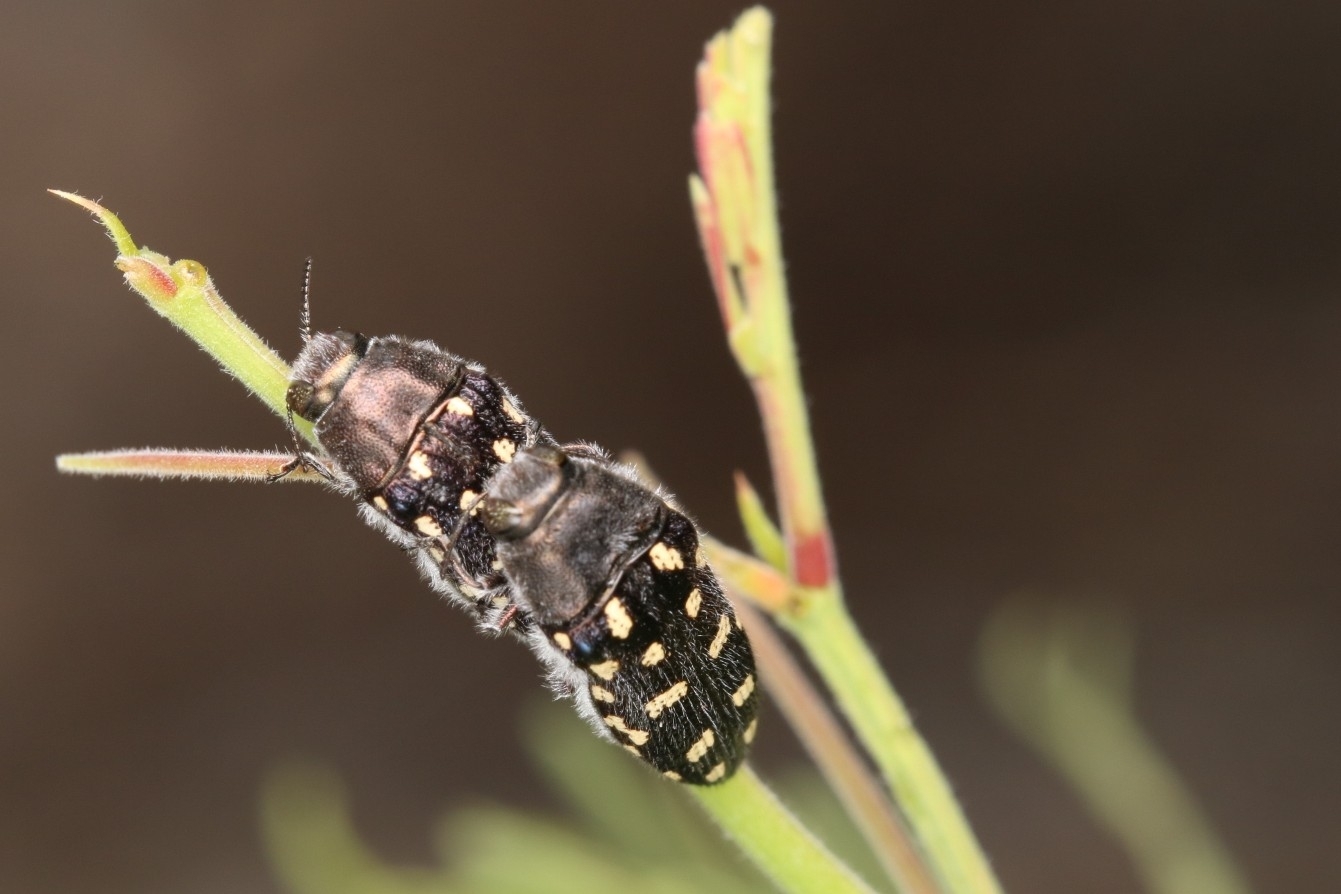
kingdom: Animalia
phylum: Arthropoda
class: Insecta
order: Coleoptera
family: Buprestidae
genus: Acmaeodera
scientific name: Acmaeodera delumbis
